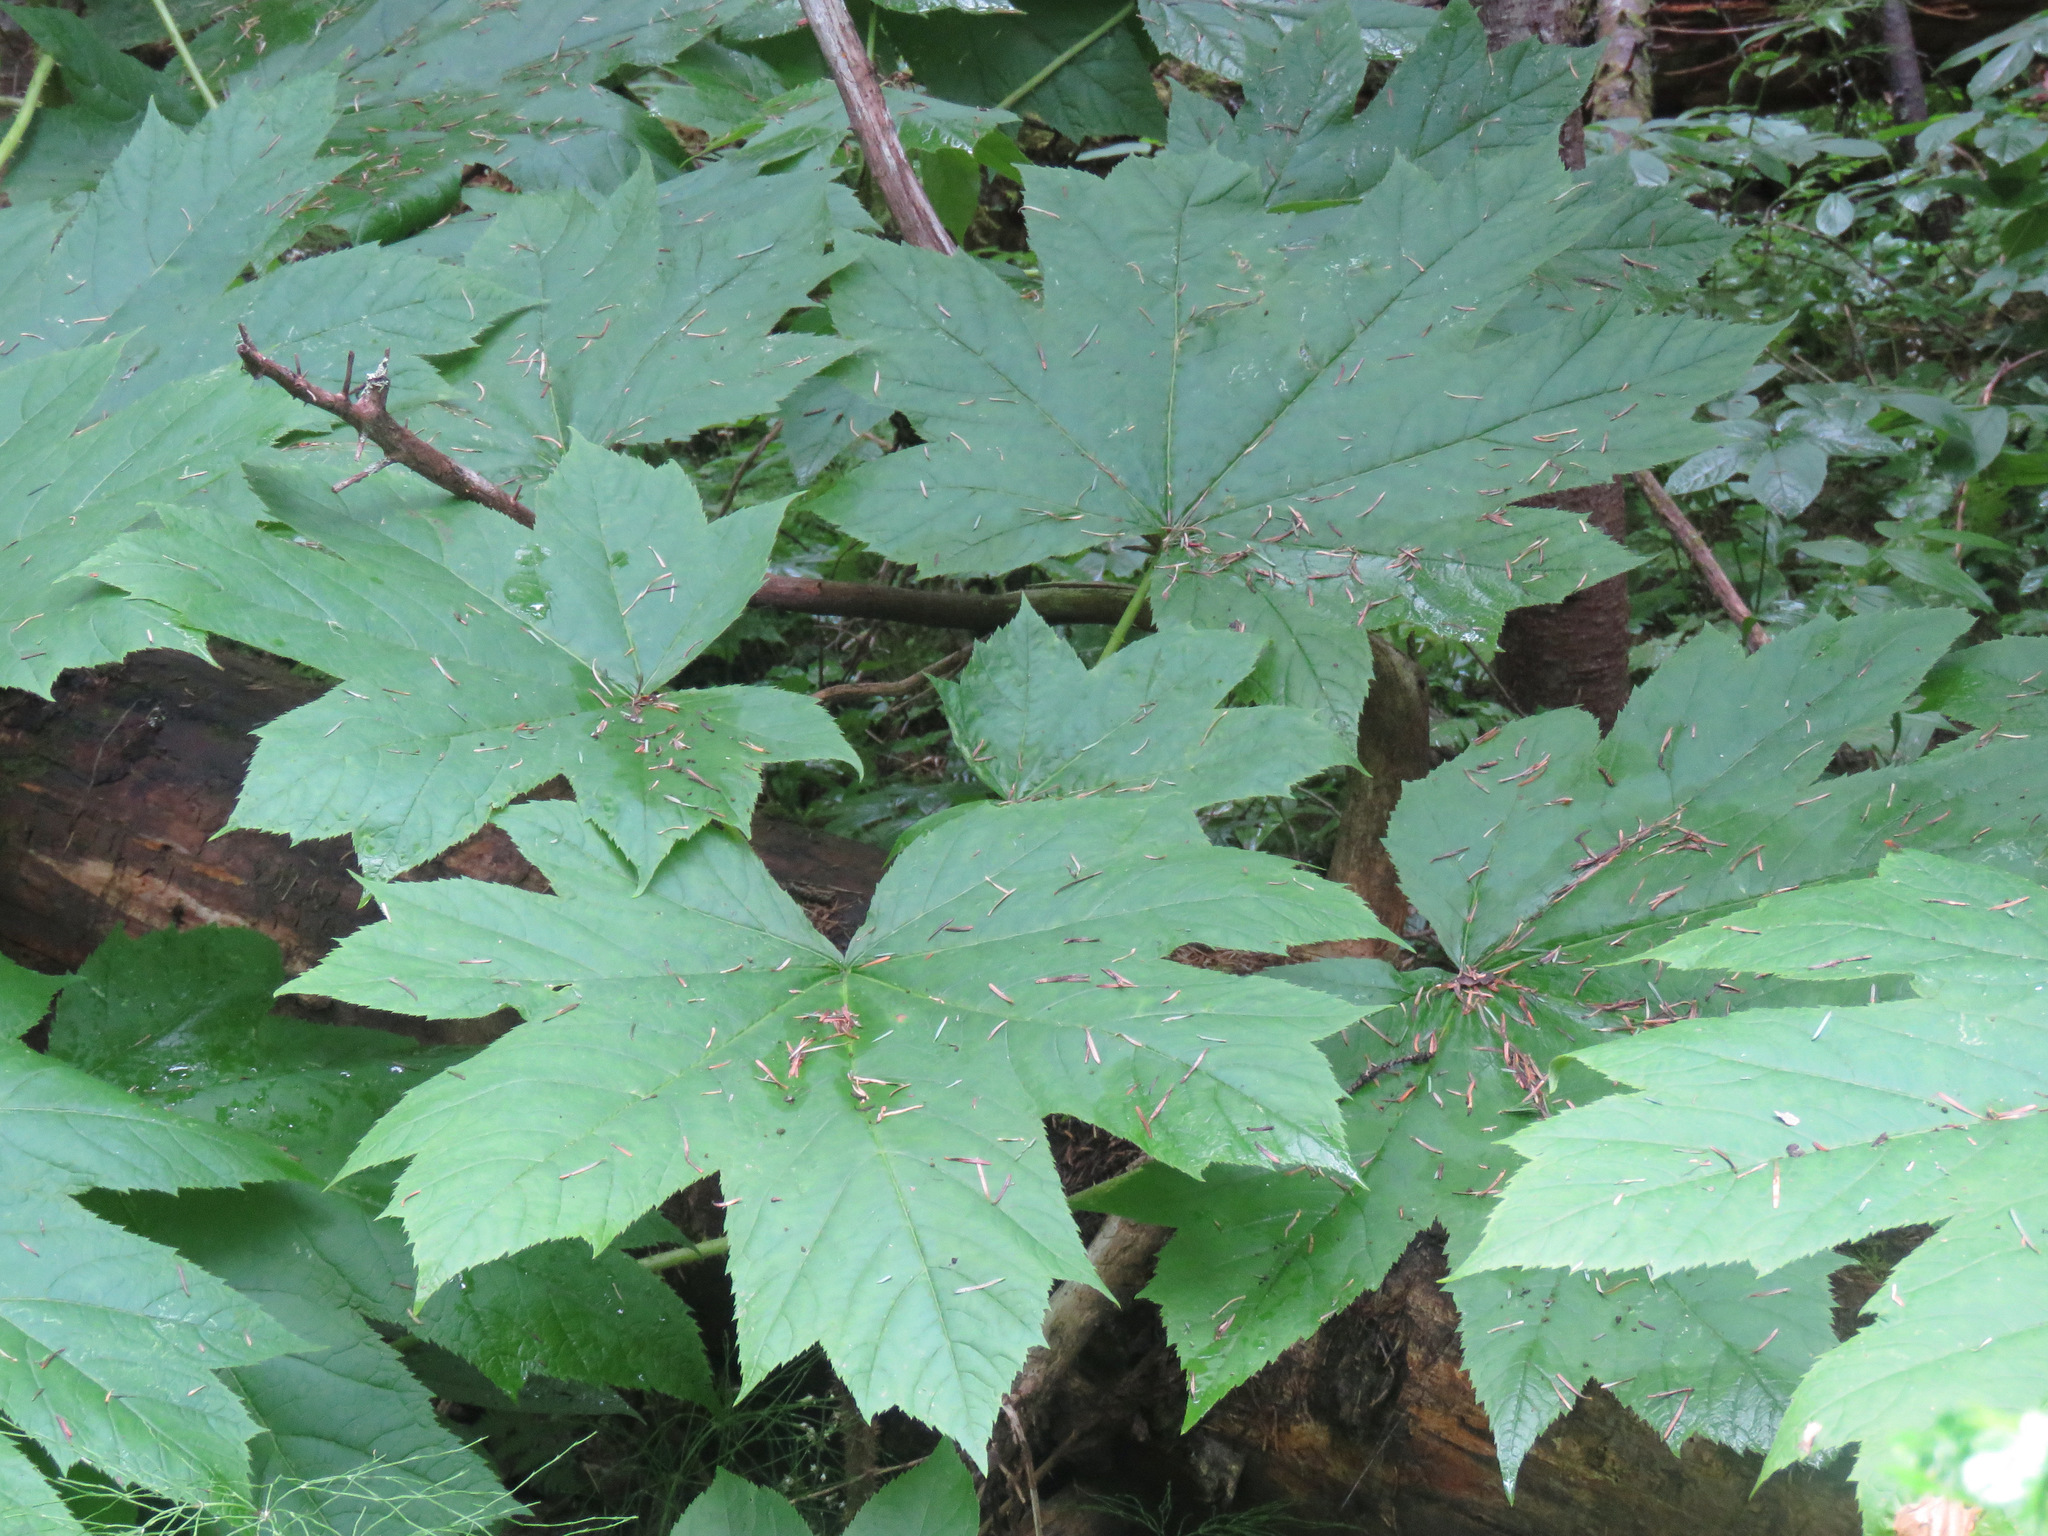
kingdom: Plantae
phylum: Tracheophyta
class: Magnoliopsida
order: Apiales
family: Araliaceae
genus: Oplopanax
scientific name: Oplopanax horridus
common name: Devil's walking-stick
